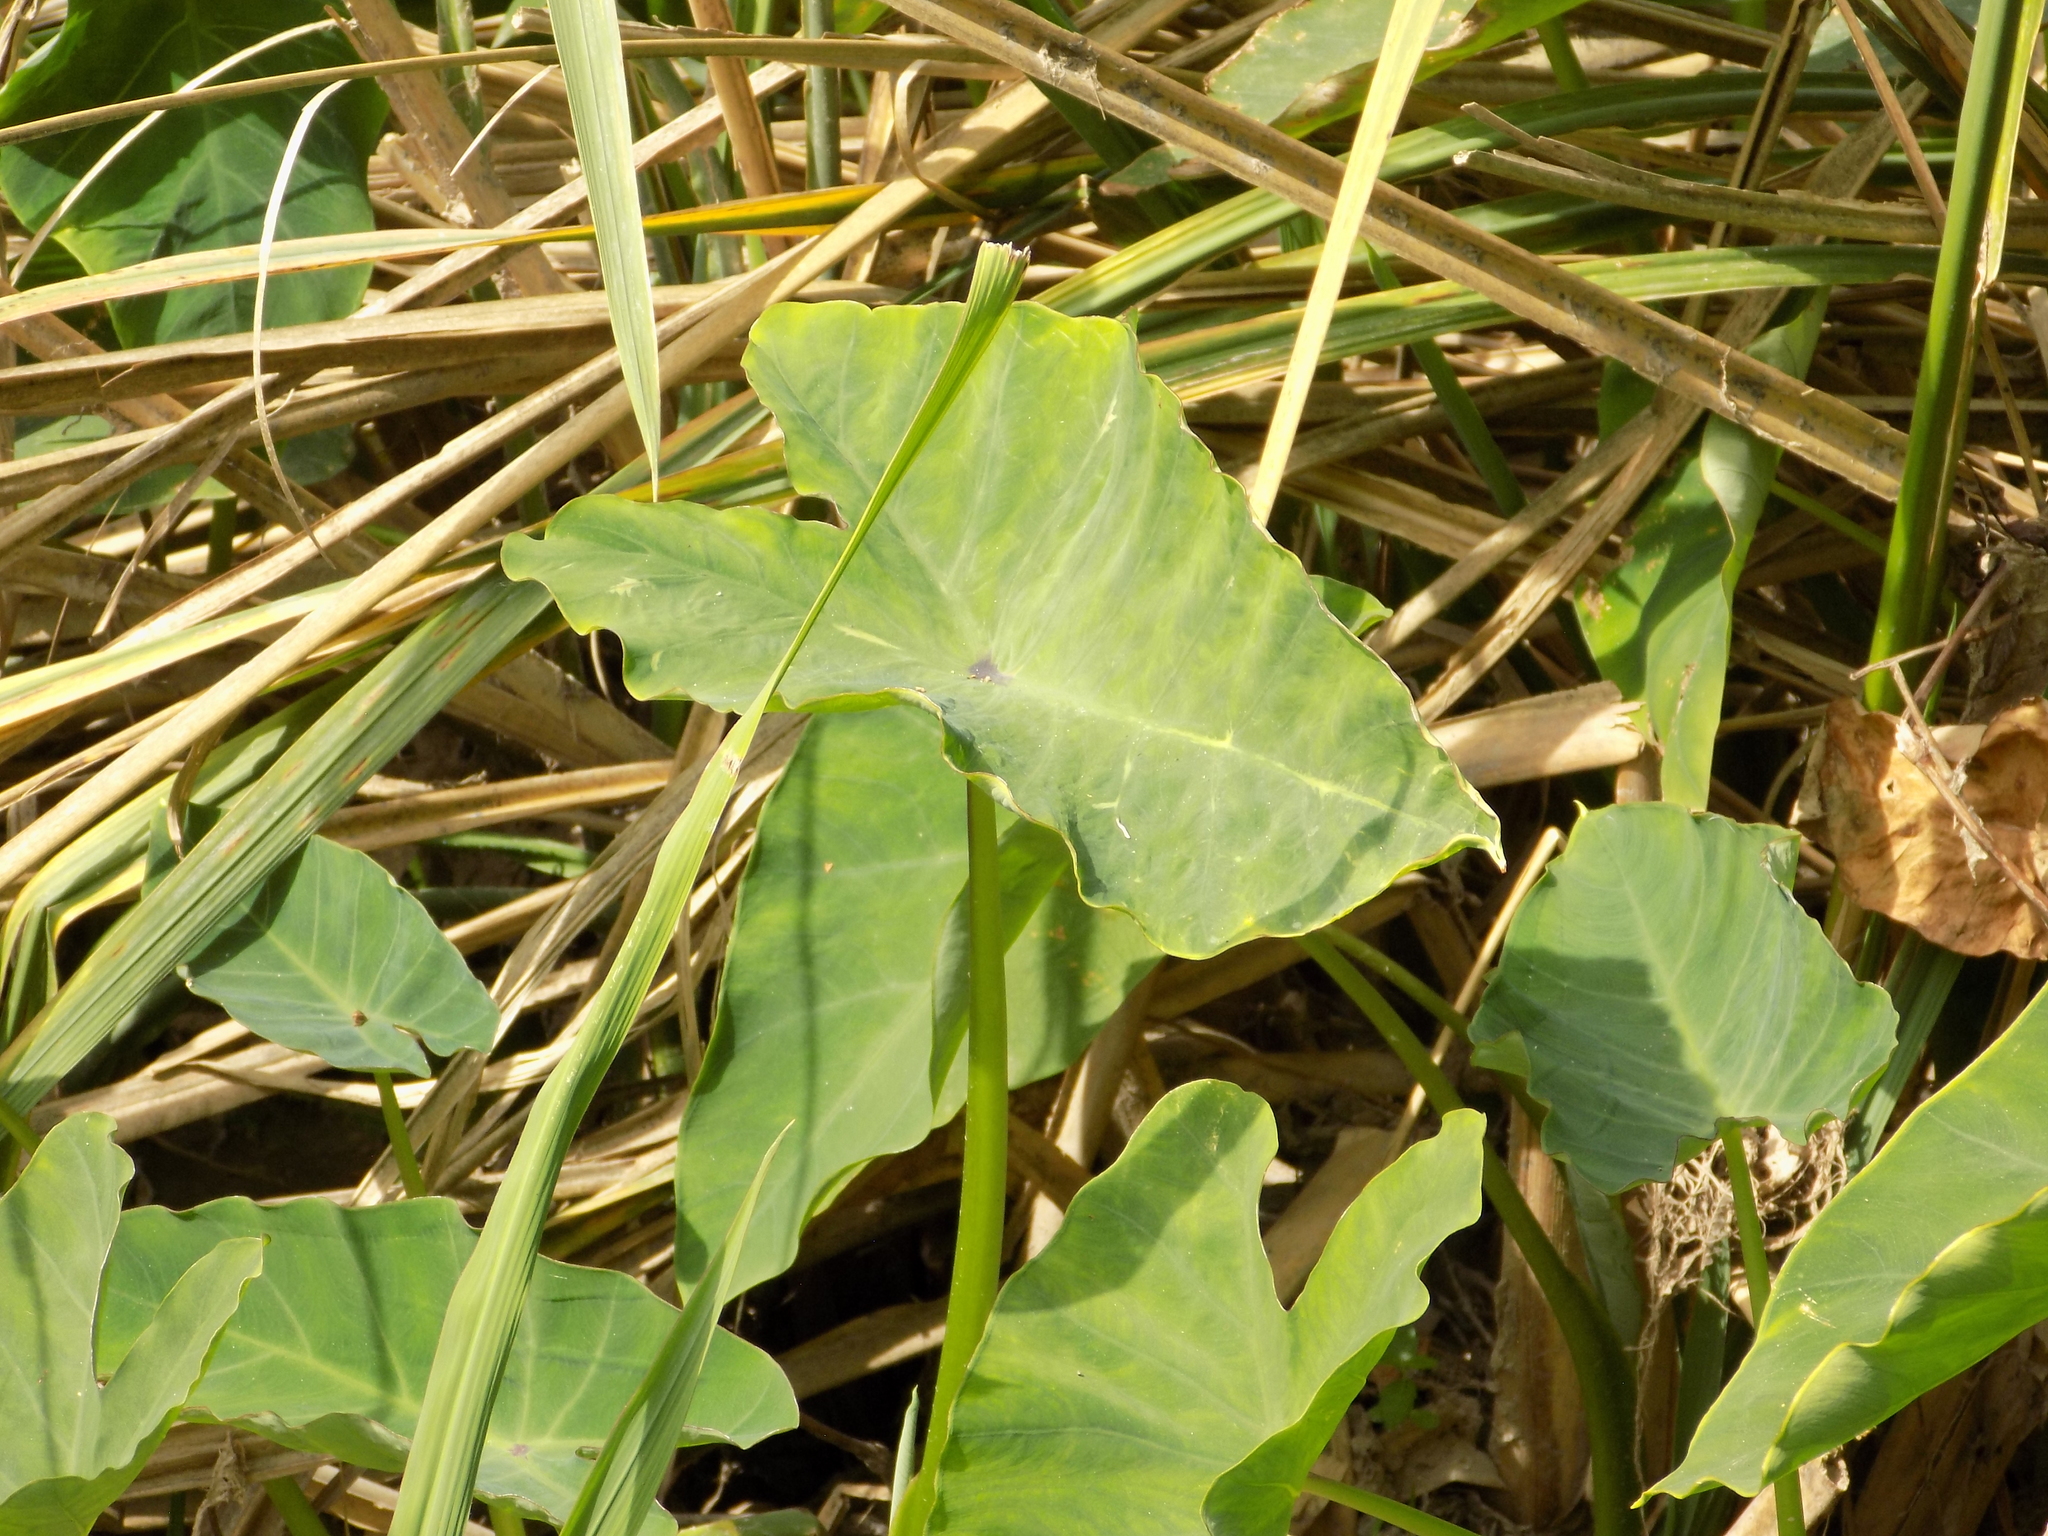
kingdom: Plantae
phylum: Tracheophyta
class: Liliopsida
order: Alismatales
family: Araceae
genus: Colocasia
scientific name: Colocasia esculenta
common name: Taro
